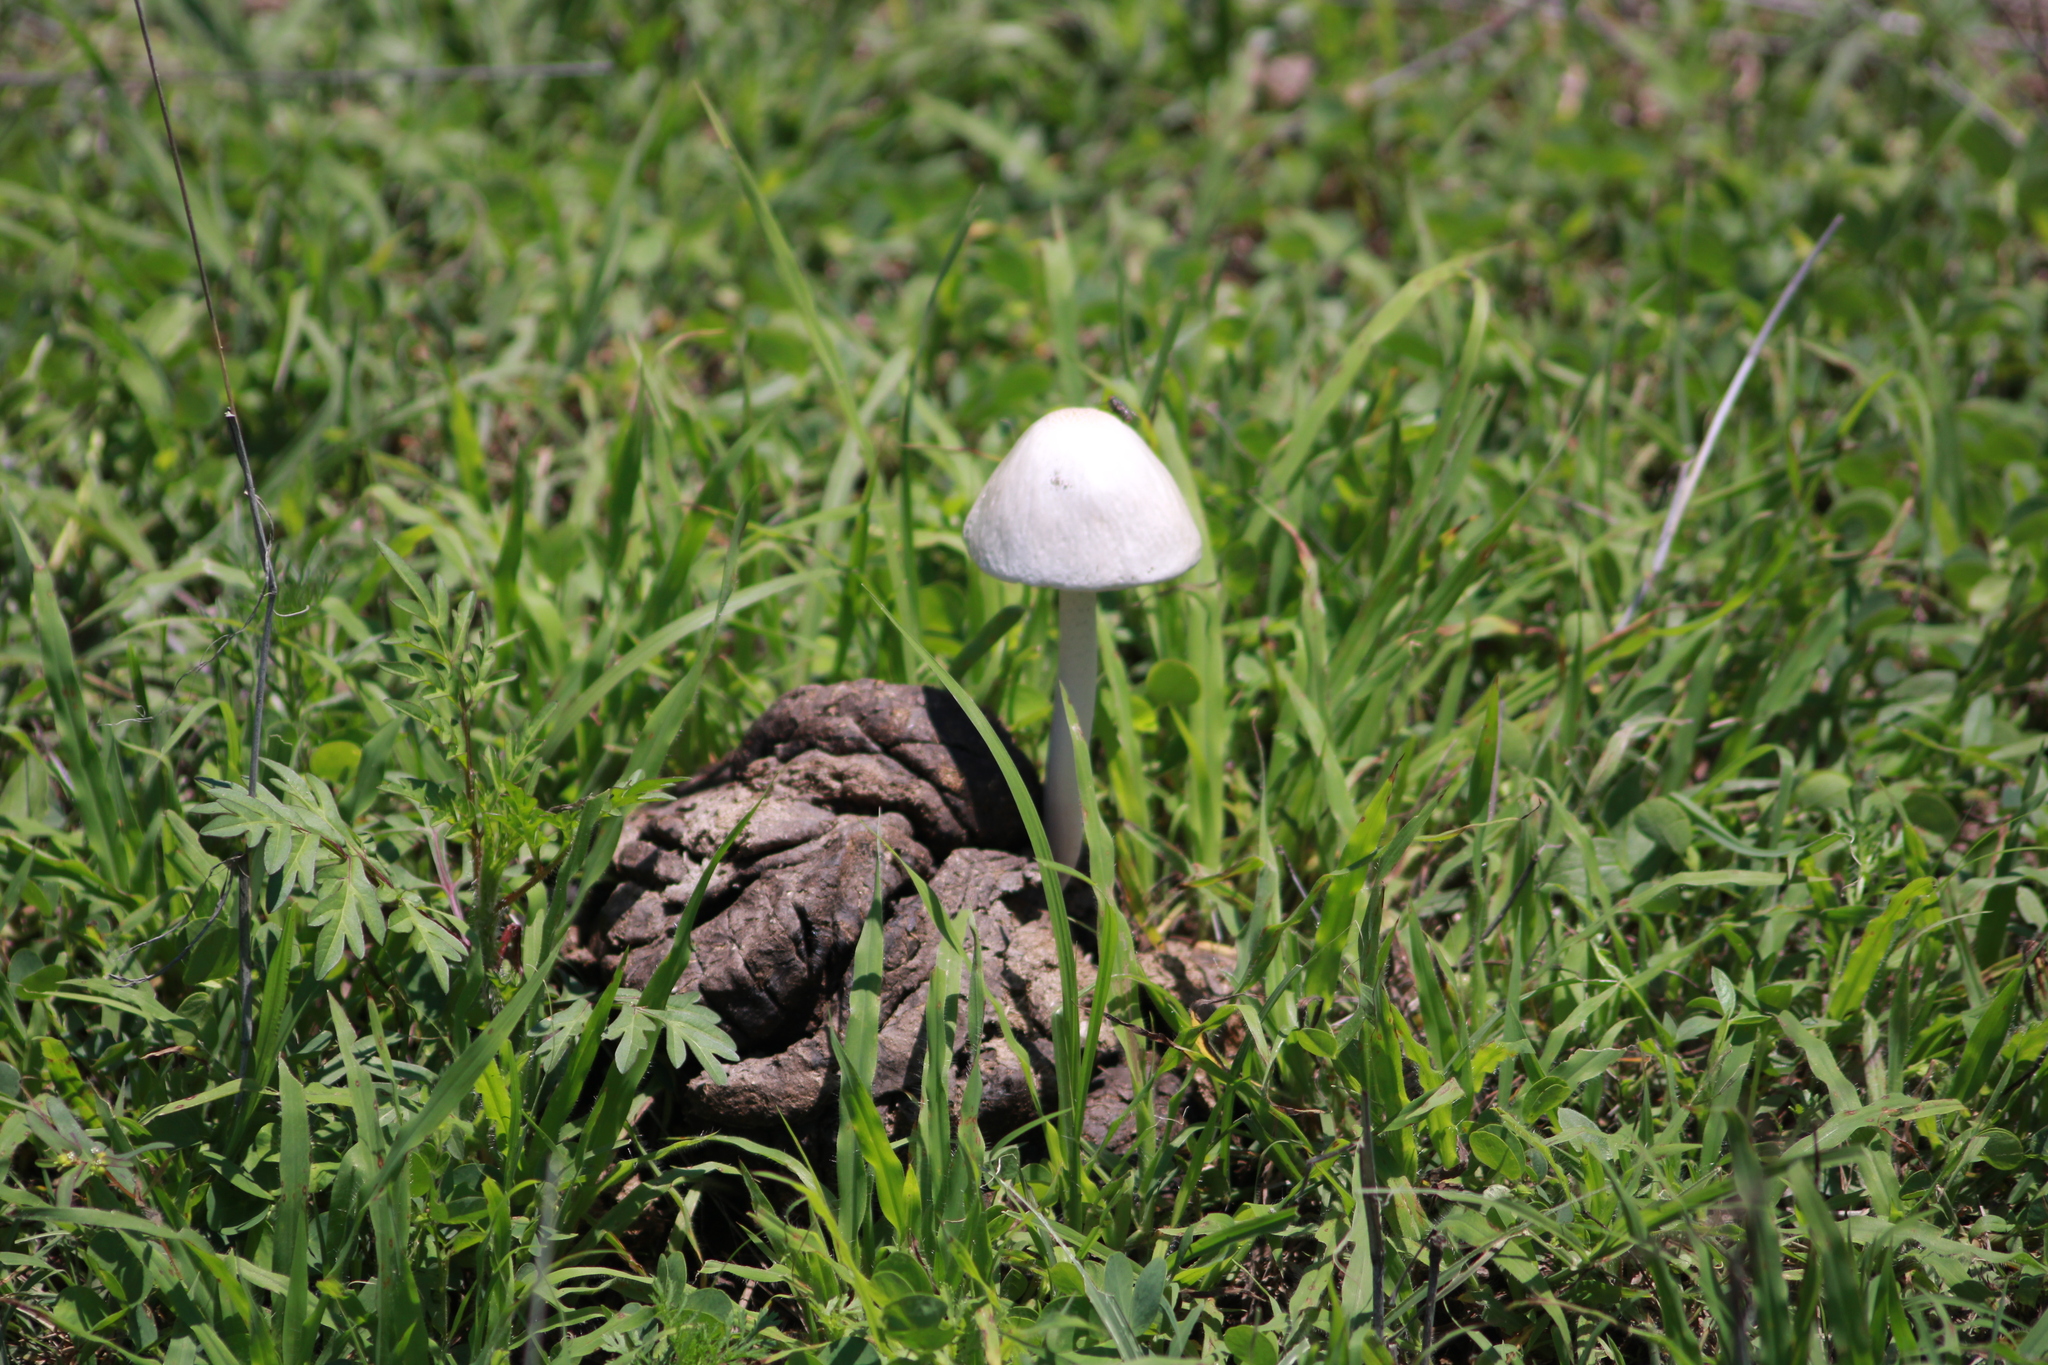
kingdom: Fungi
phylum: Basidiomycota
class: Agaricomycetes
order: Agaricales
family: Bolbitiaceae
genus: Panaeolus
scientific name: Panaeolus antillarum
